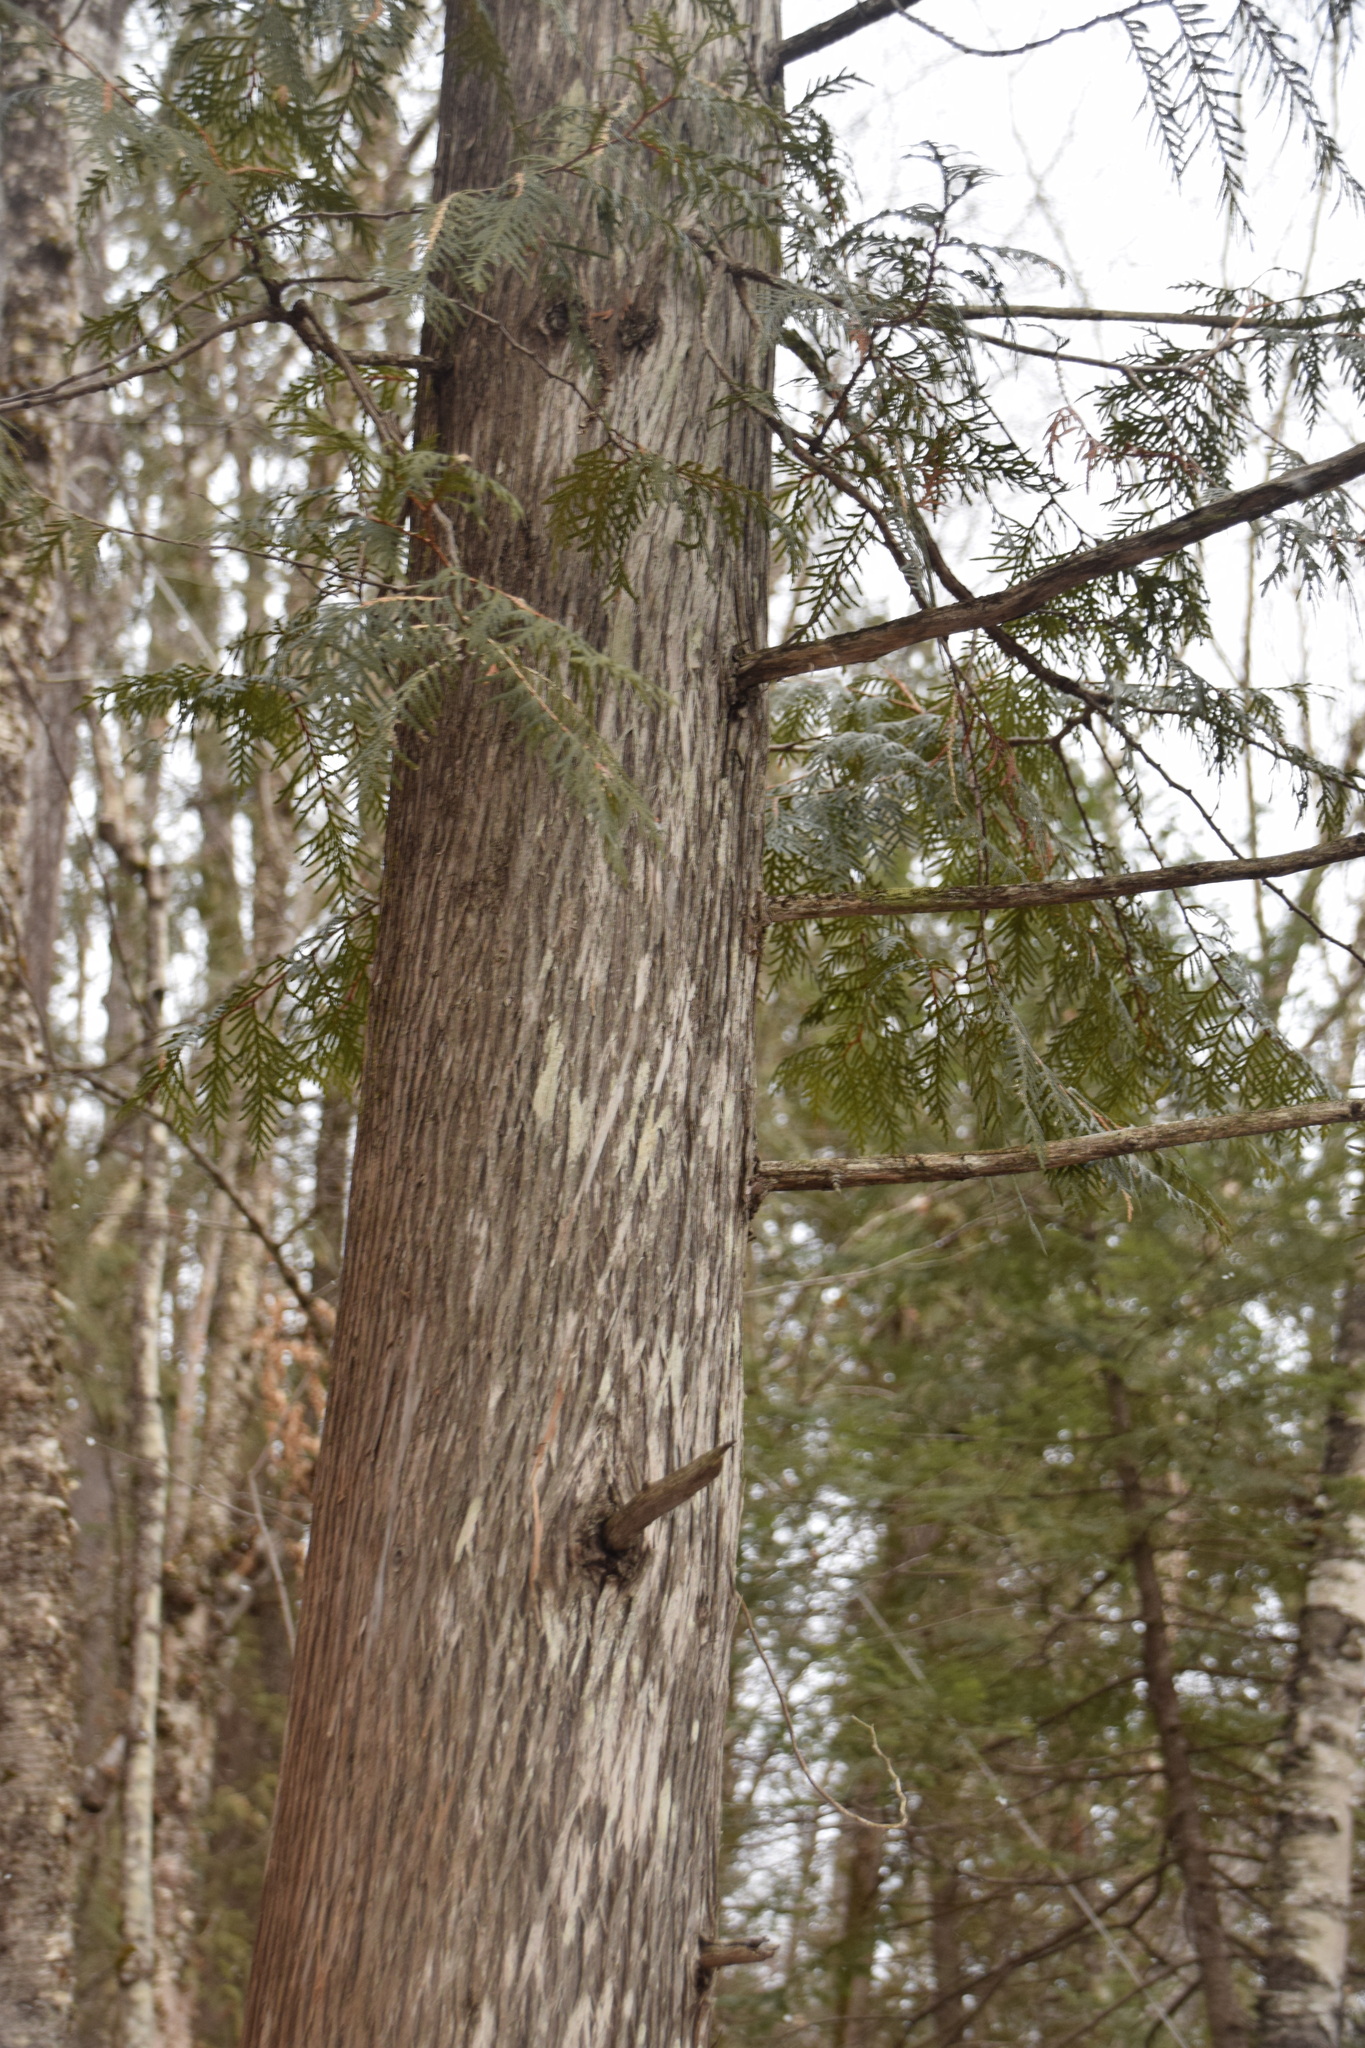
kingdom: Plantae
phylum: Tracheophyta
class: Pinopsida
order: Pinales
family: Cupressaceae
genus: Thuja
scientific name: Thuja occidentalis
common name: Northern white-cedar
